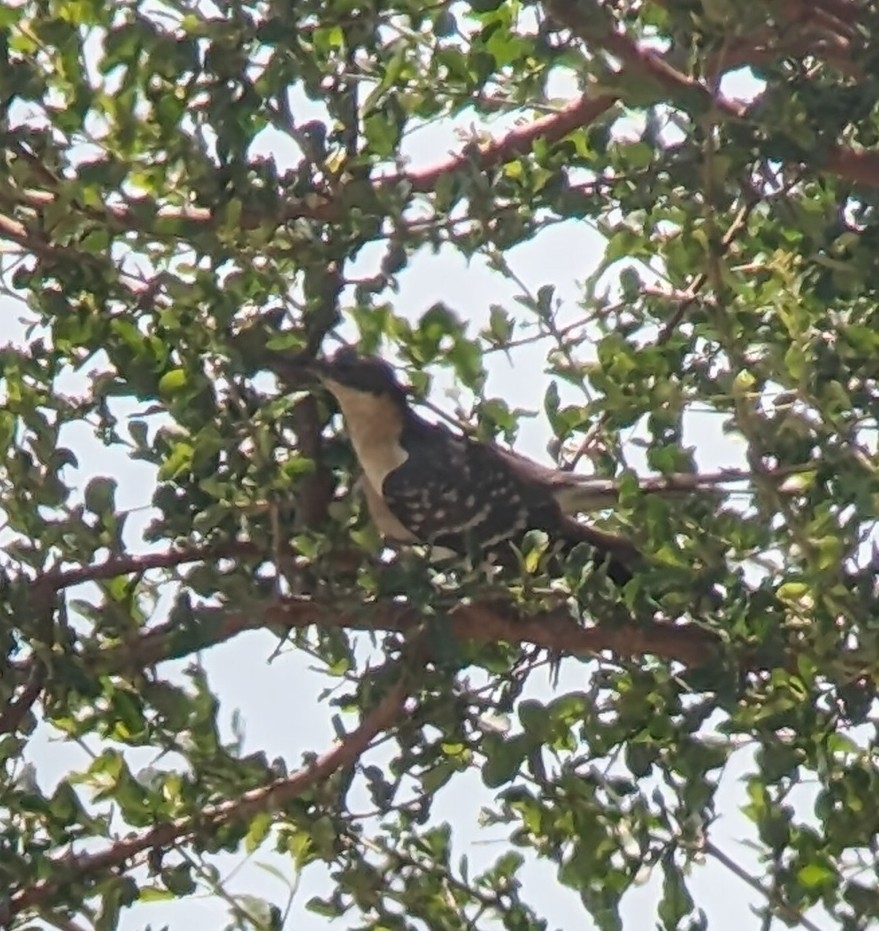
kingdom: Animalia
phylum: Chordata
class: Aves
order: Cuculiformes
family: Cuculidae
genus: Clamator
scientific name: Clamator glandarius
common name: Great spotted cuckoo
